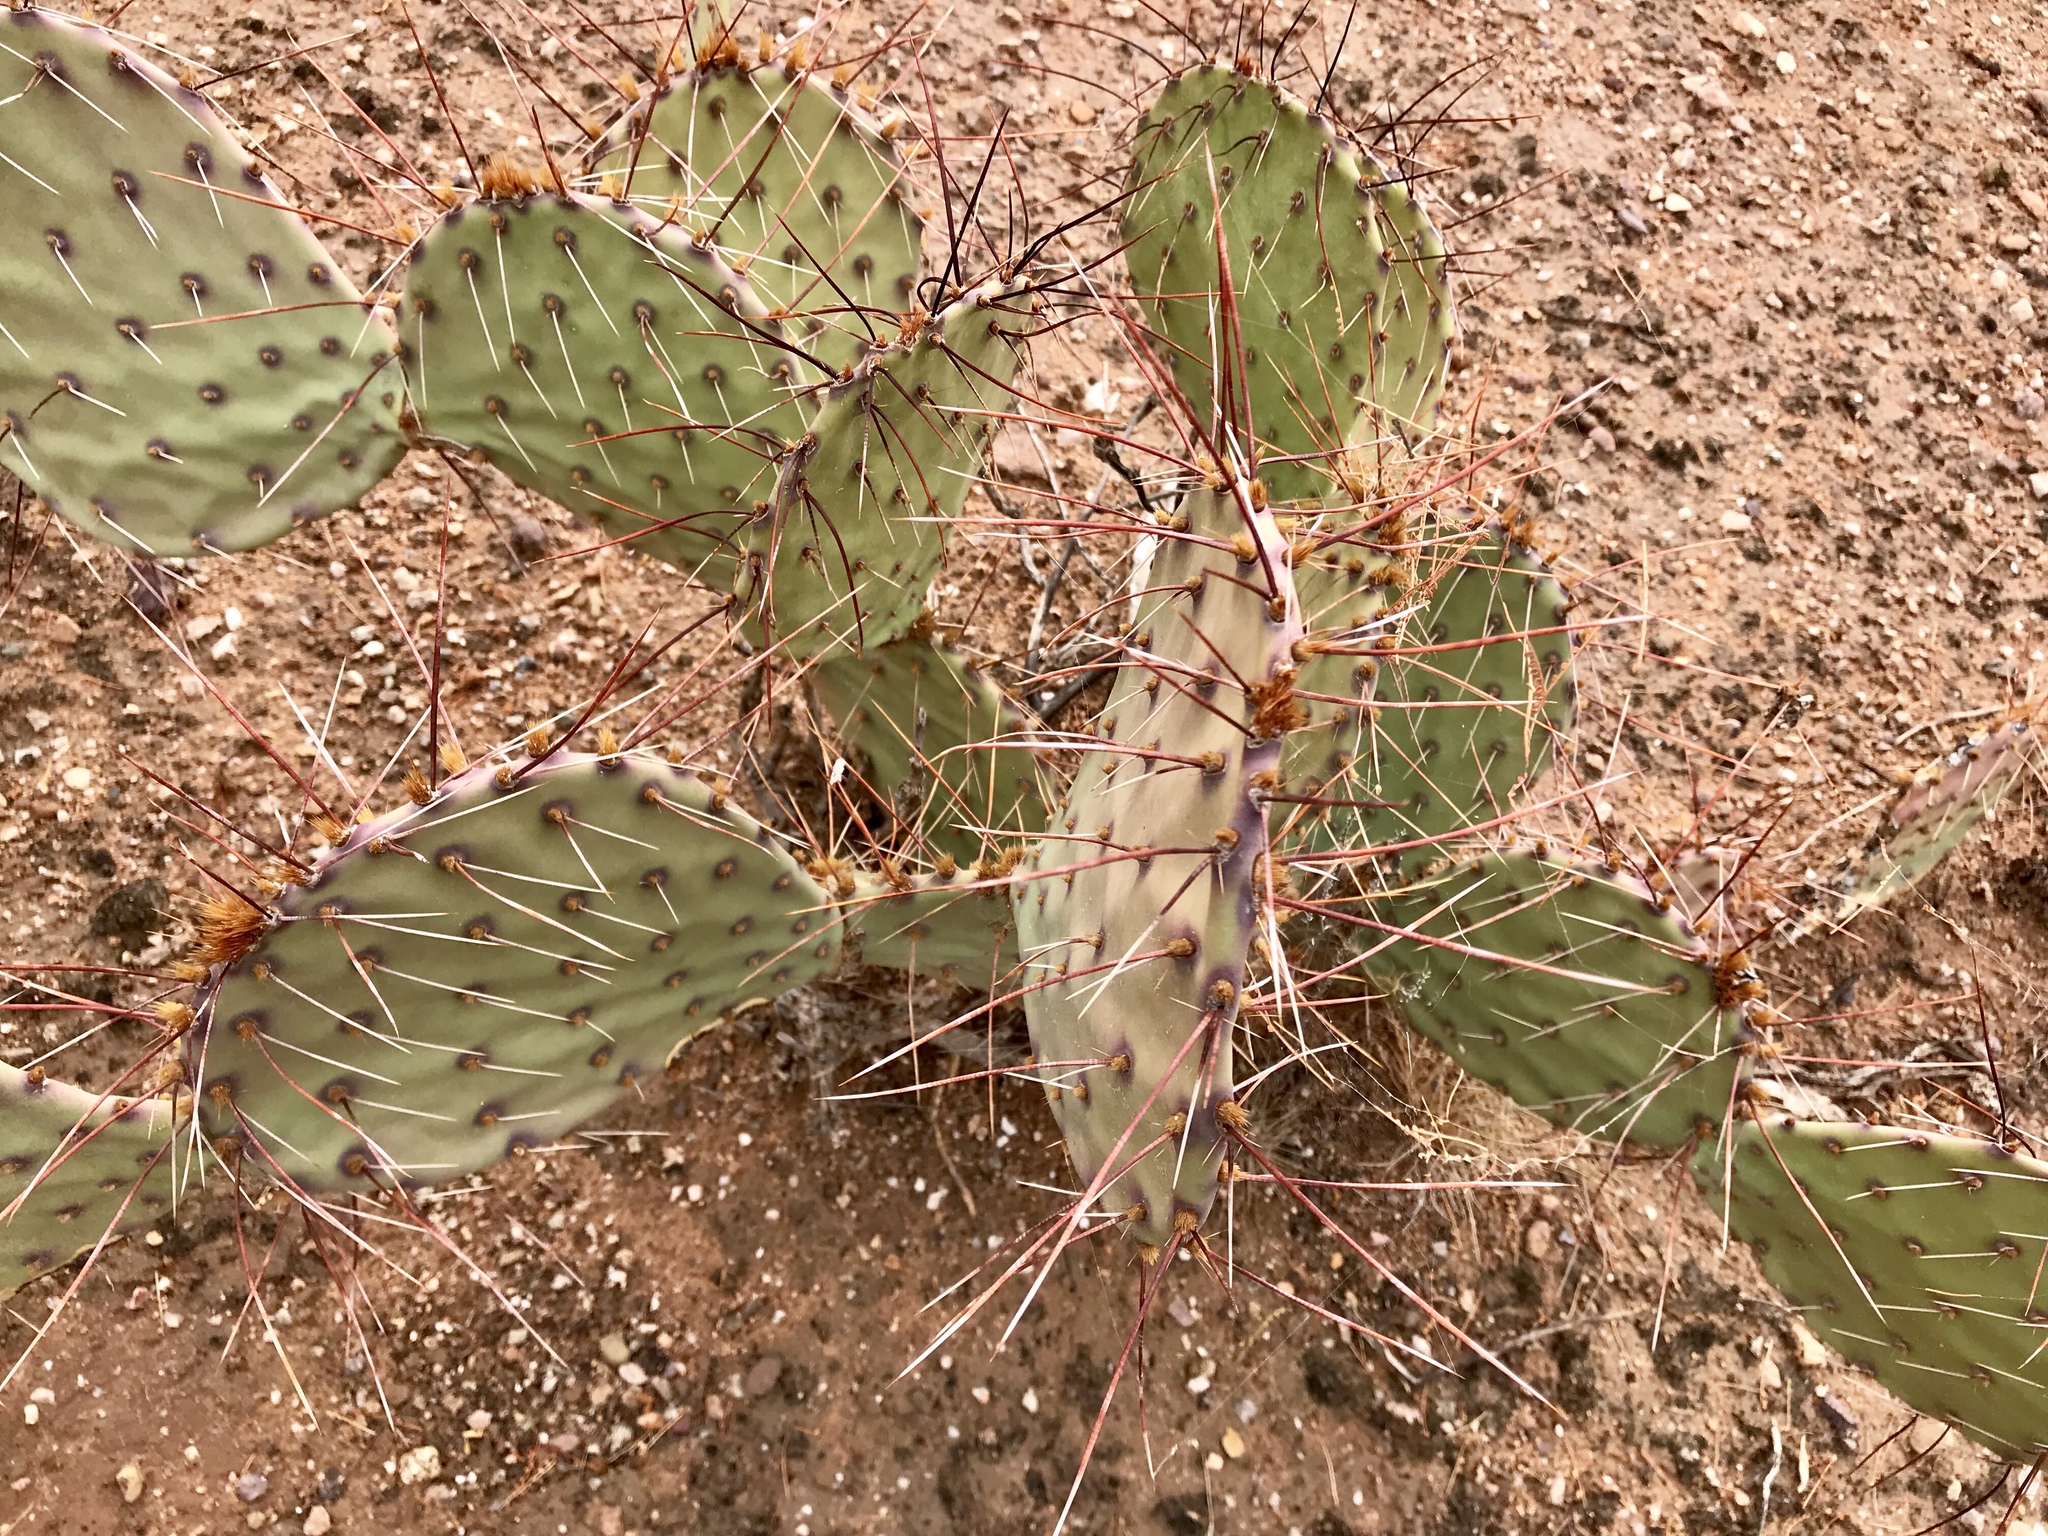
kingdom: Plantae
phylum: Tracheophyta
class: Magnoliopsida
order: Caryophyllales
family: Cactaceae
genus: Opuntia
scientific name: Opuntia phaeacantha
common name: New mexico prickly-pear
